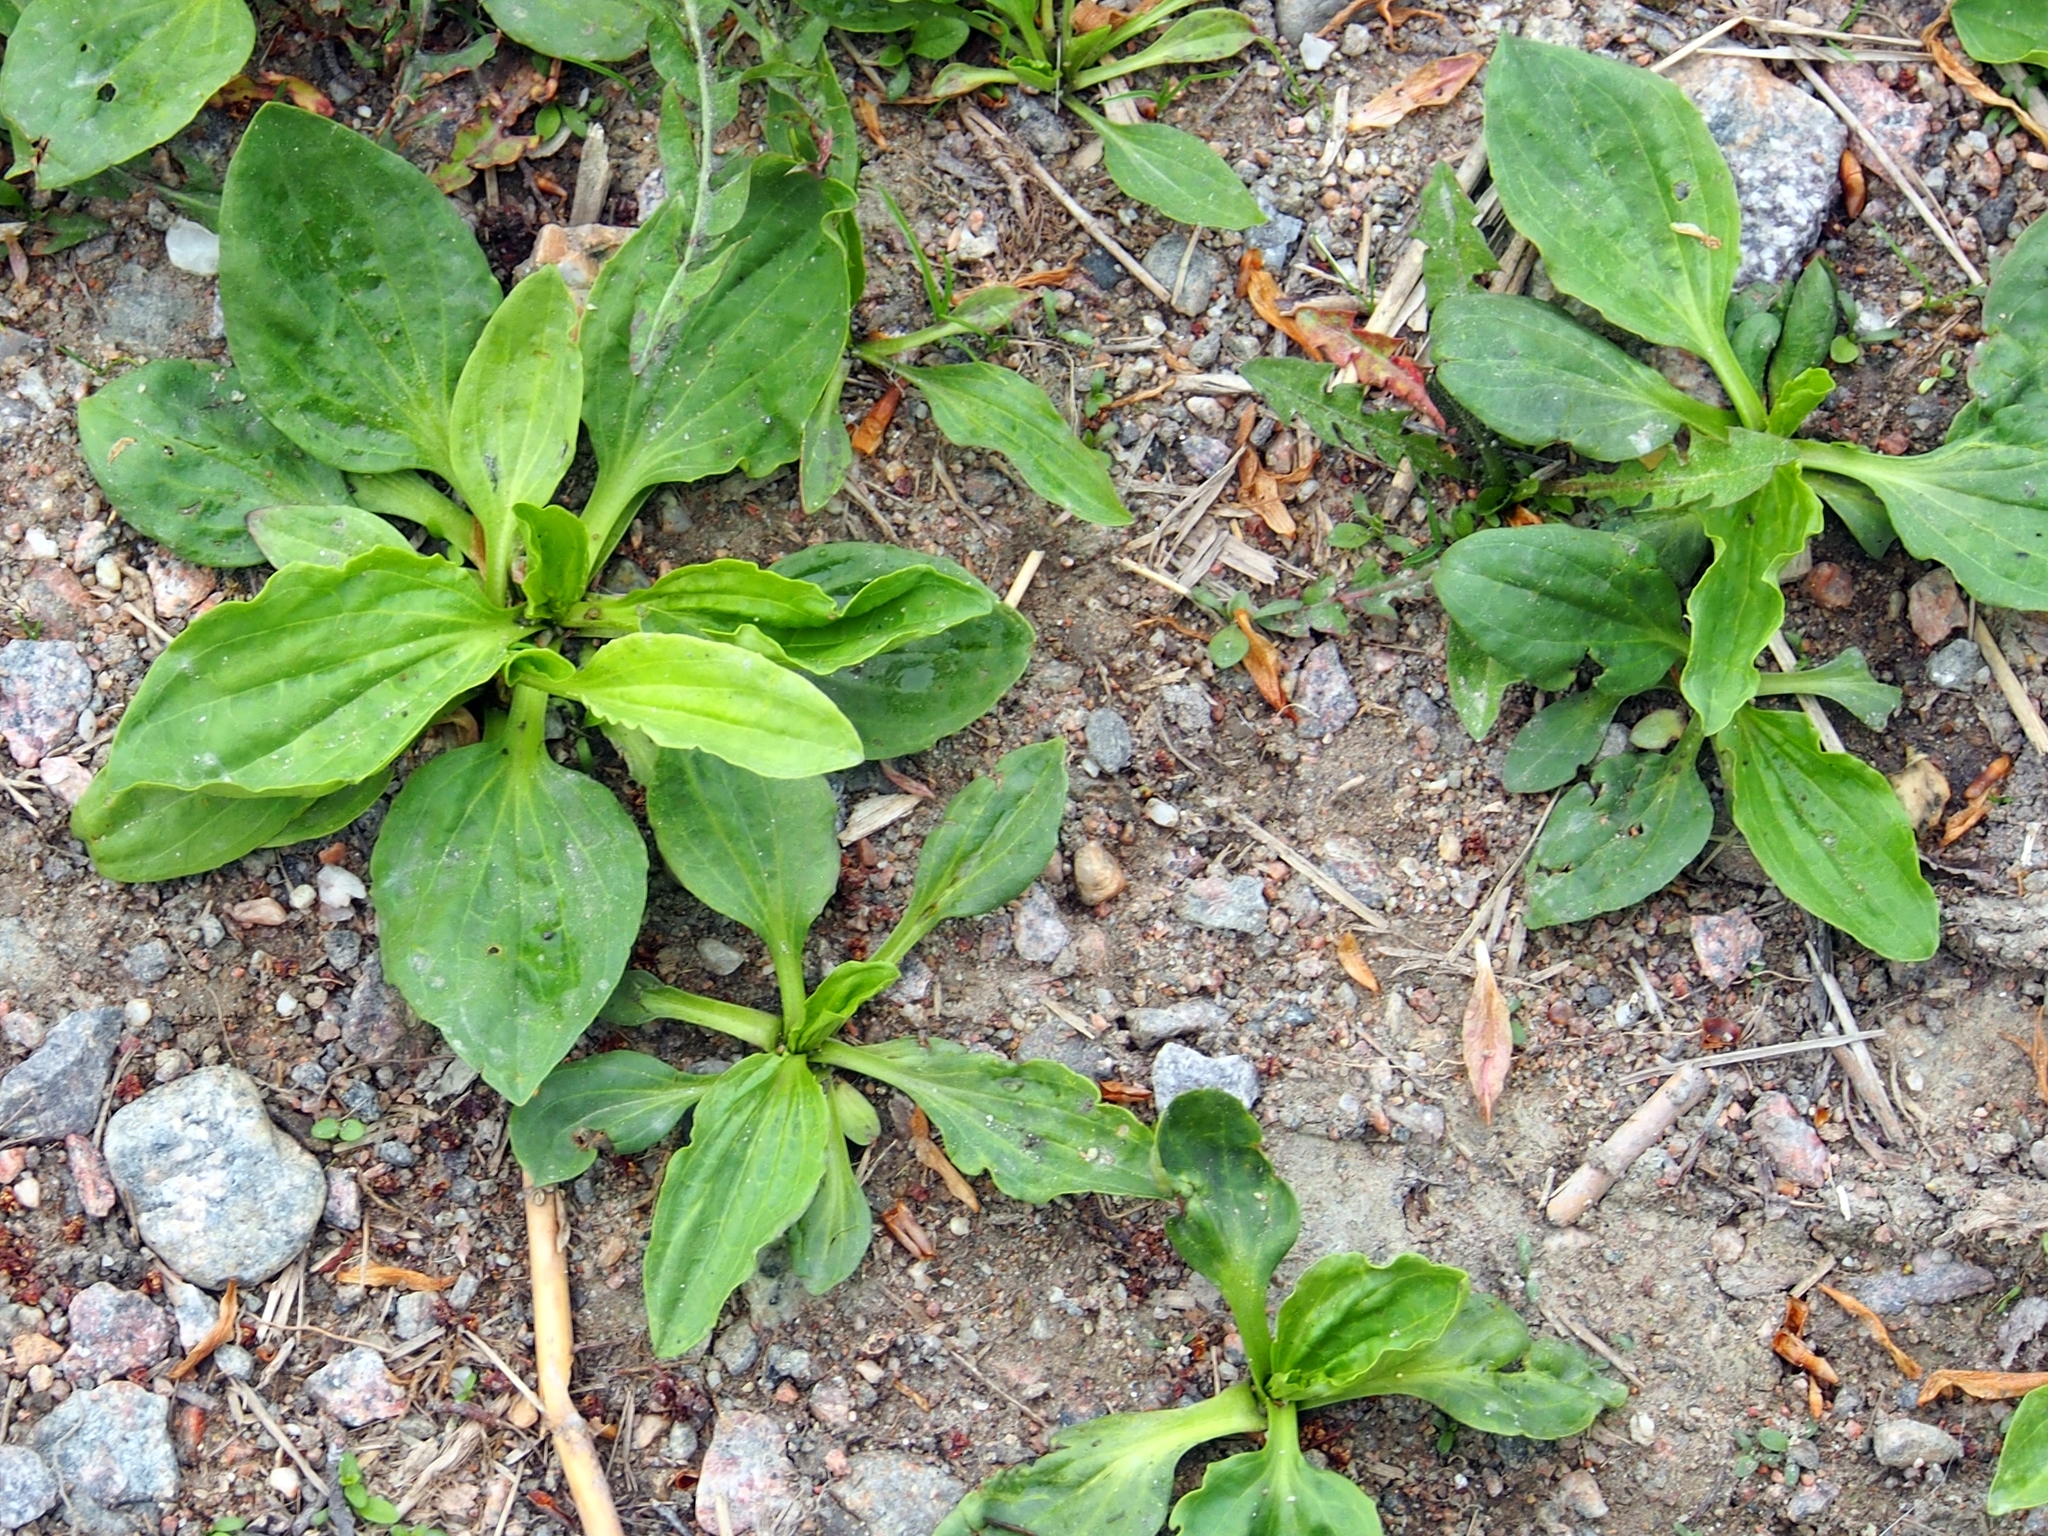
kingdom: Plantae
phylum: Tracheophyta
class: Magnoliopsida
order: Lamiales
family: Plantaginaceae
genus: Plantago
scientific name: Plantago major
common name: Common plantain
